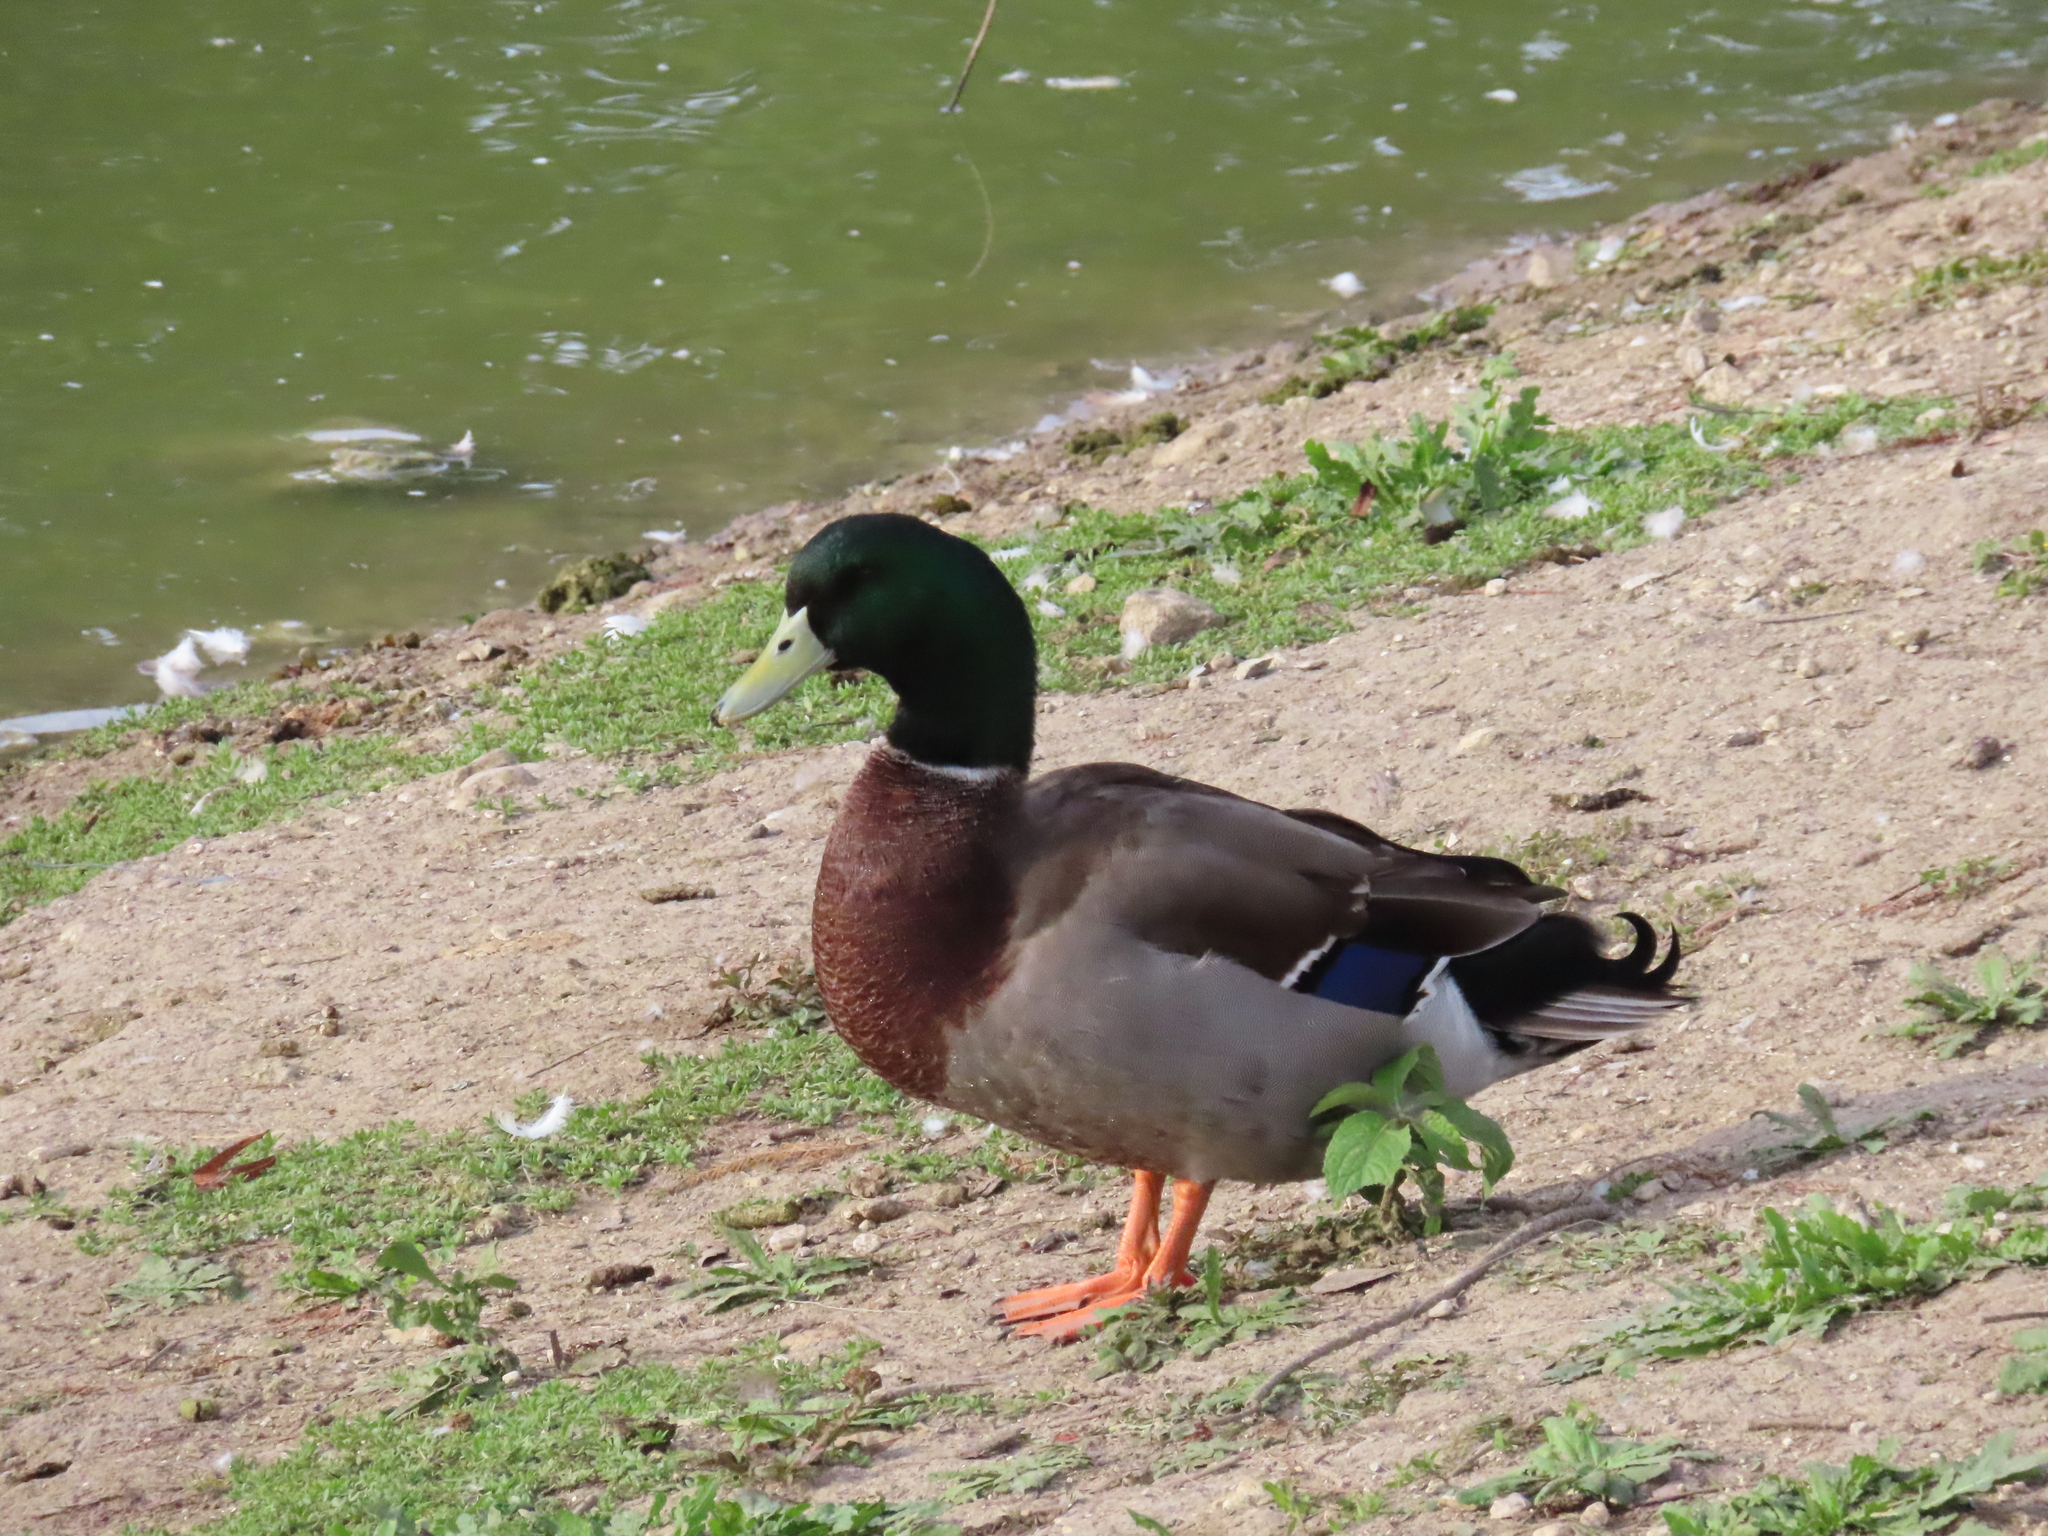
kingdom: Animalia
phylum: Chordata
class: Aves
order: Anseriformes
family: Anatidae
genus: Anas
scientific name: Anas platyrhynchos
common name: Mallard
